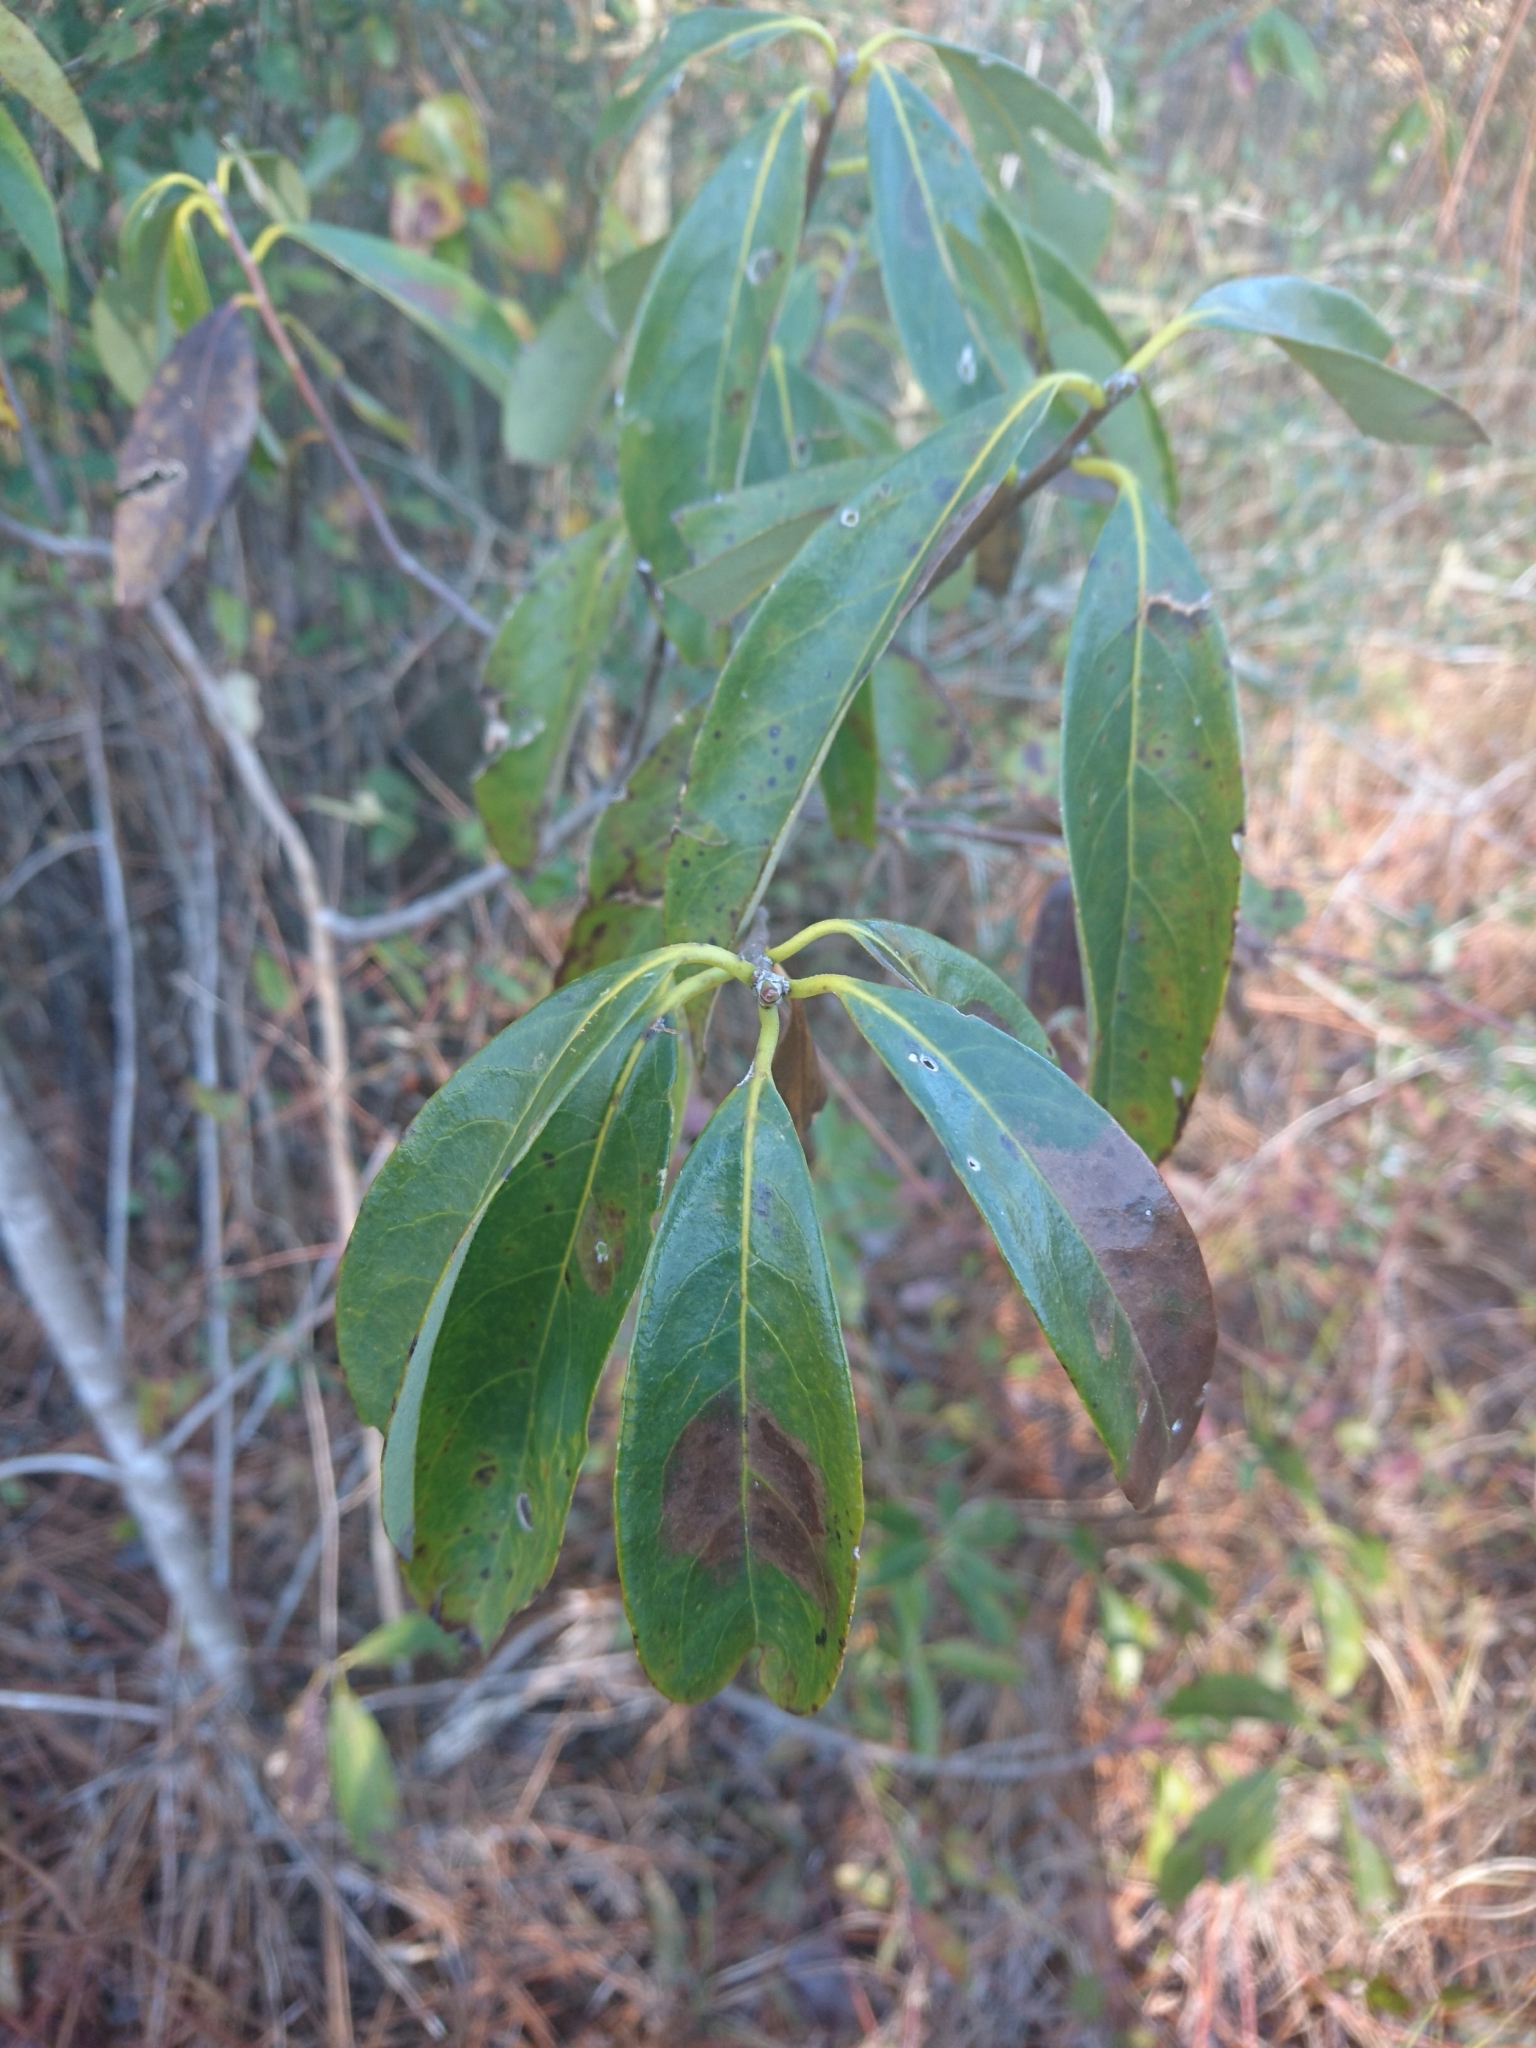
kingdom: Plantae
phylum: Tracheophyta
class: Magnoliopsida
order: Ericales
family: Symplocaceae
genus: Symplocos
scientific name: Symplocos tinctoria
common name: Horse-sugar
